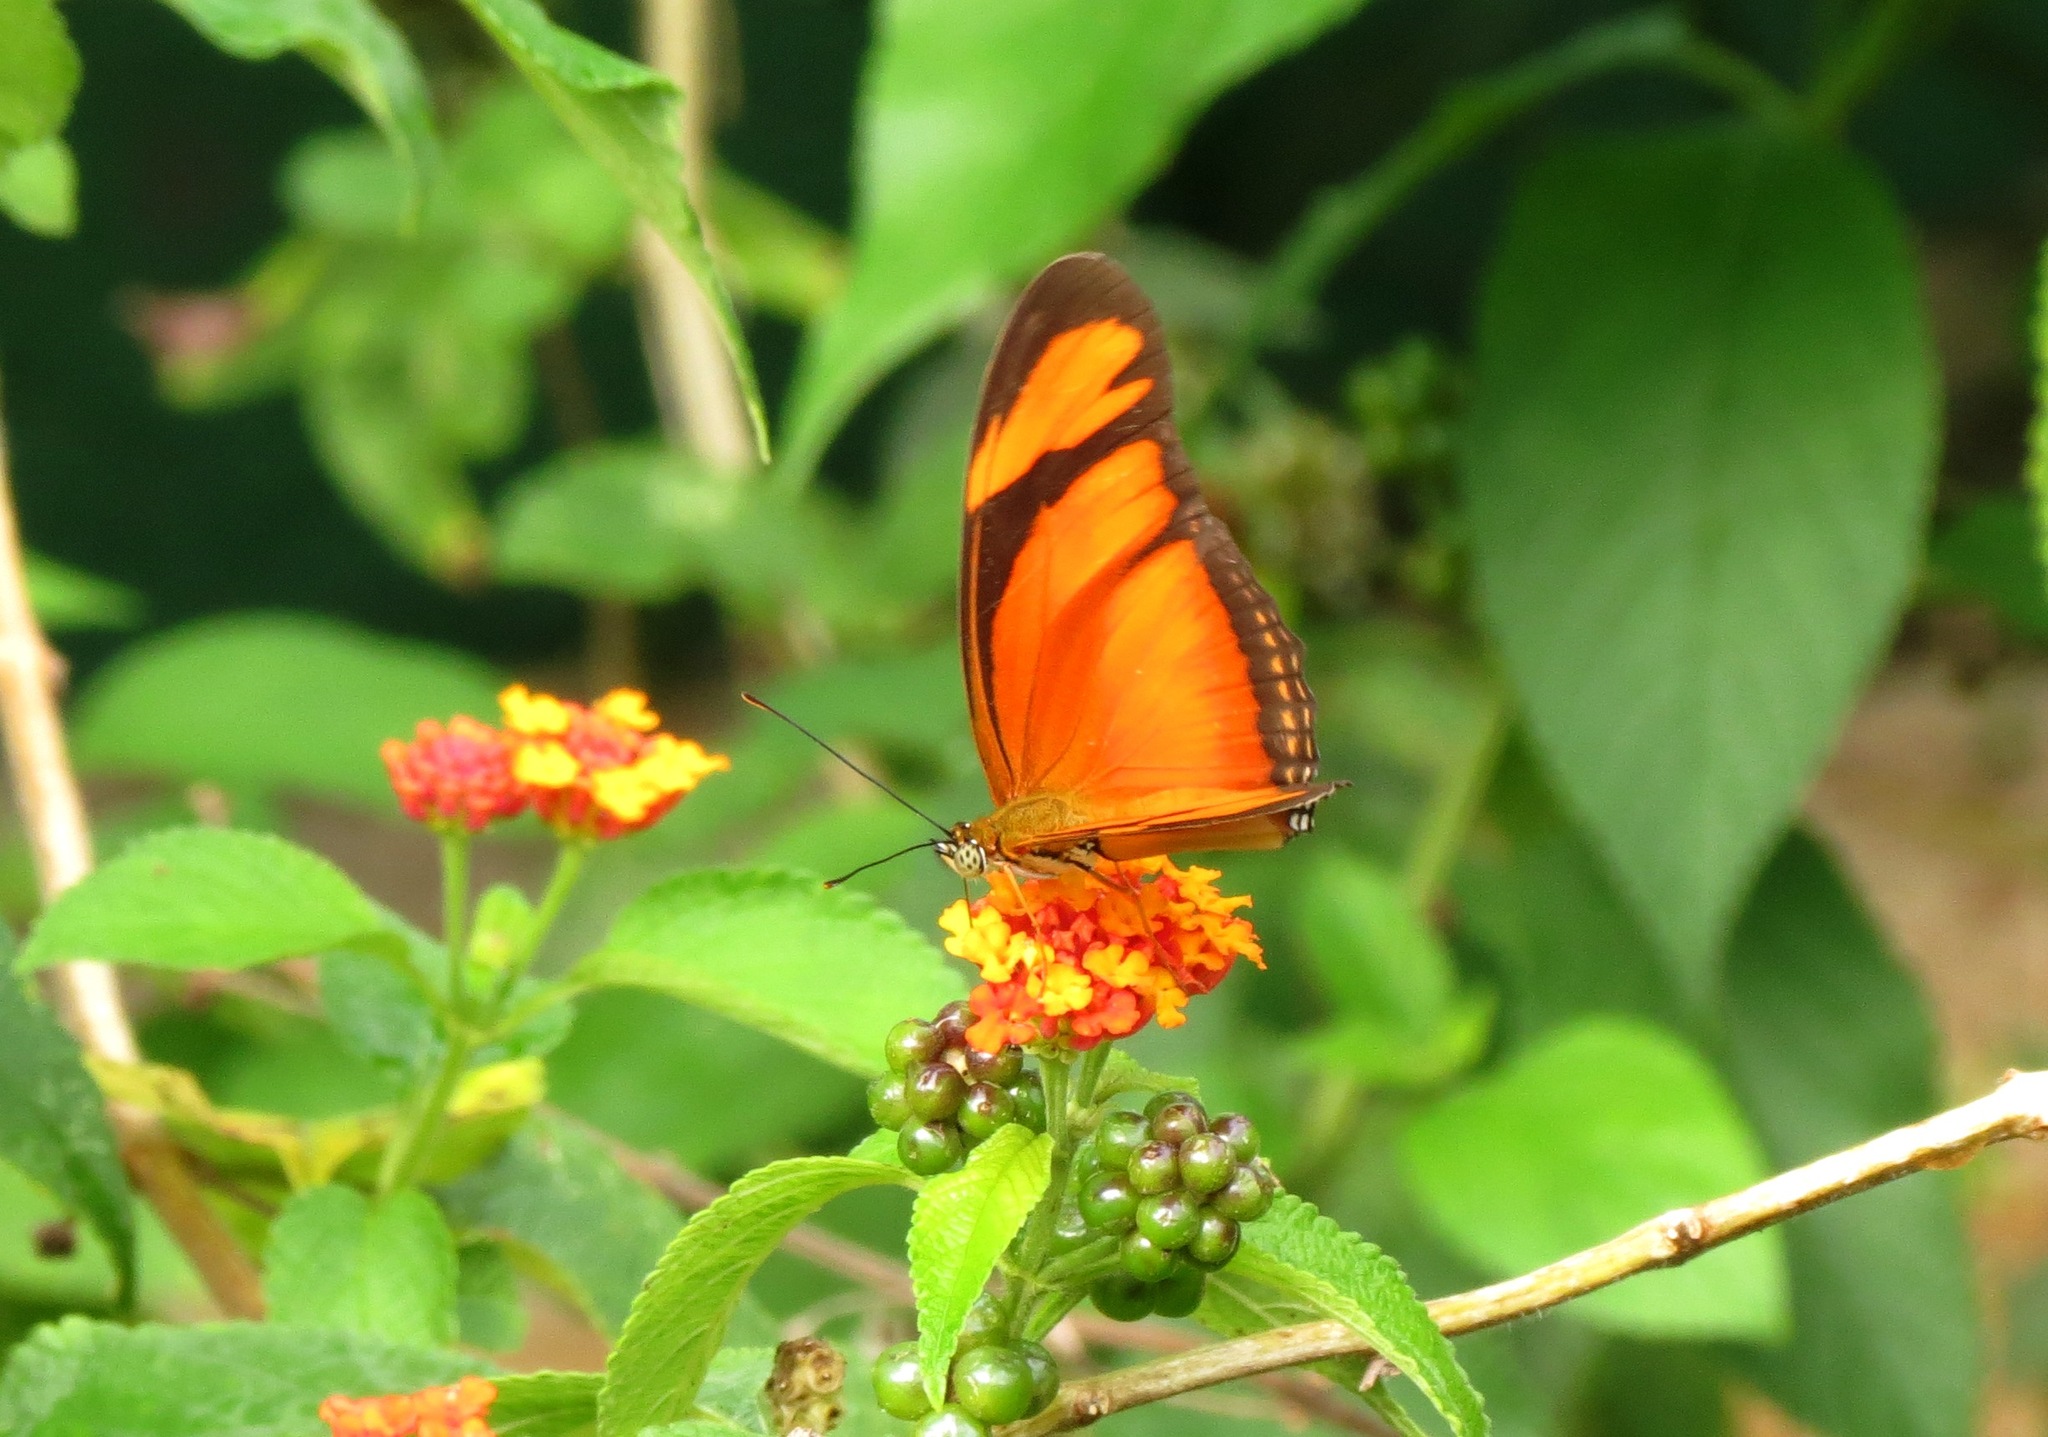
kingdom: Animalia
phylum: Arthropoda
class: Insecta
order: Lepidoptera
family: Nymphalidae
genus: Dryas
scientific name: Dryas iulia
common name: Flambeau
